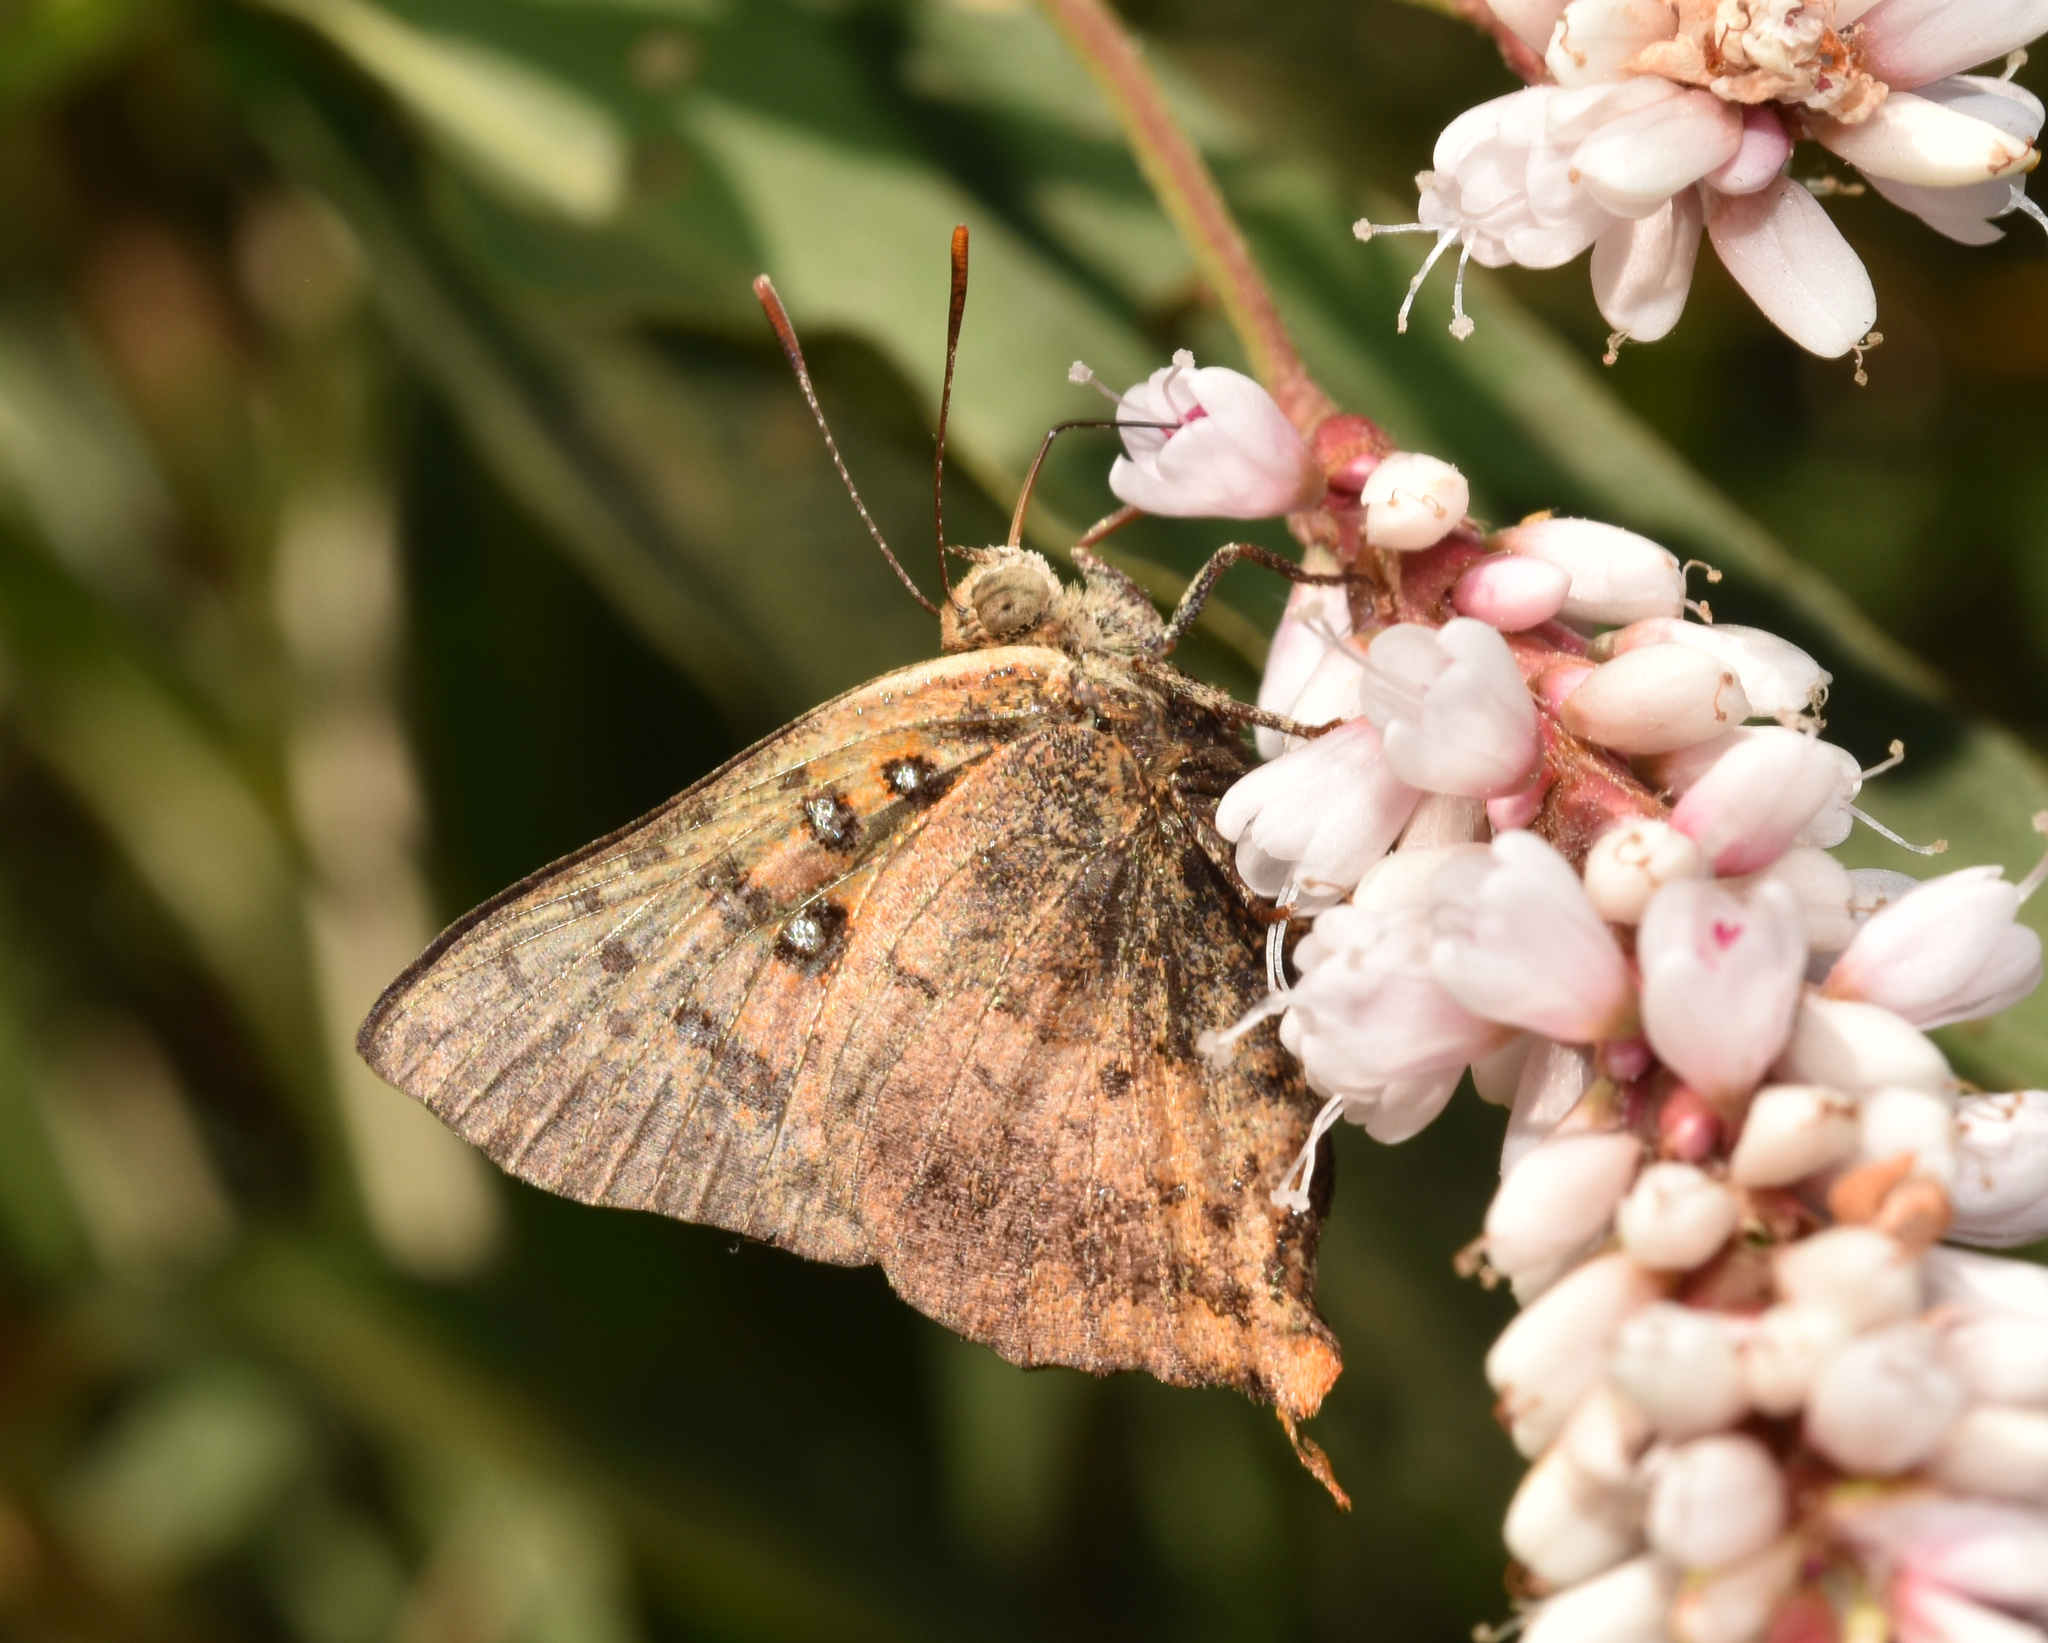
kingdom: Animalia
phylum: Arthropoda
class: Insecta
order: Lepidoptera
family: Lycaenidae
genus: Axiocerses
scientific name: Axiocerses perion
